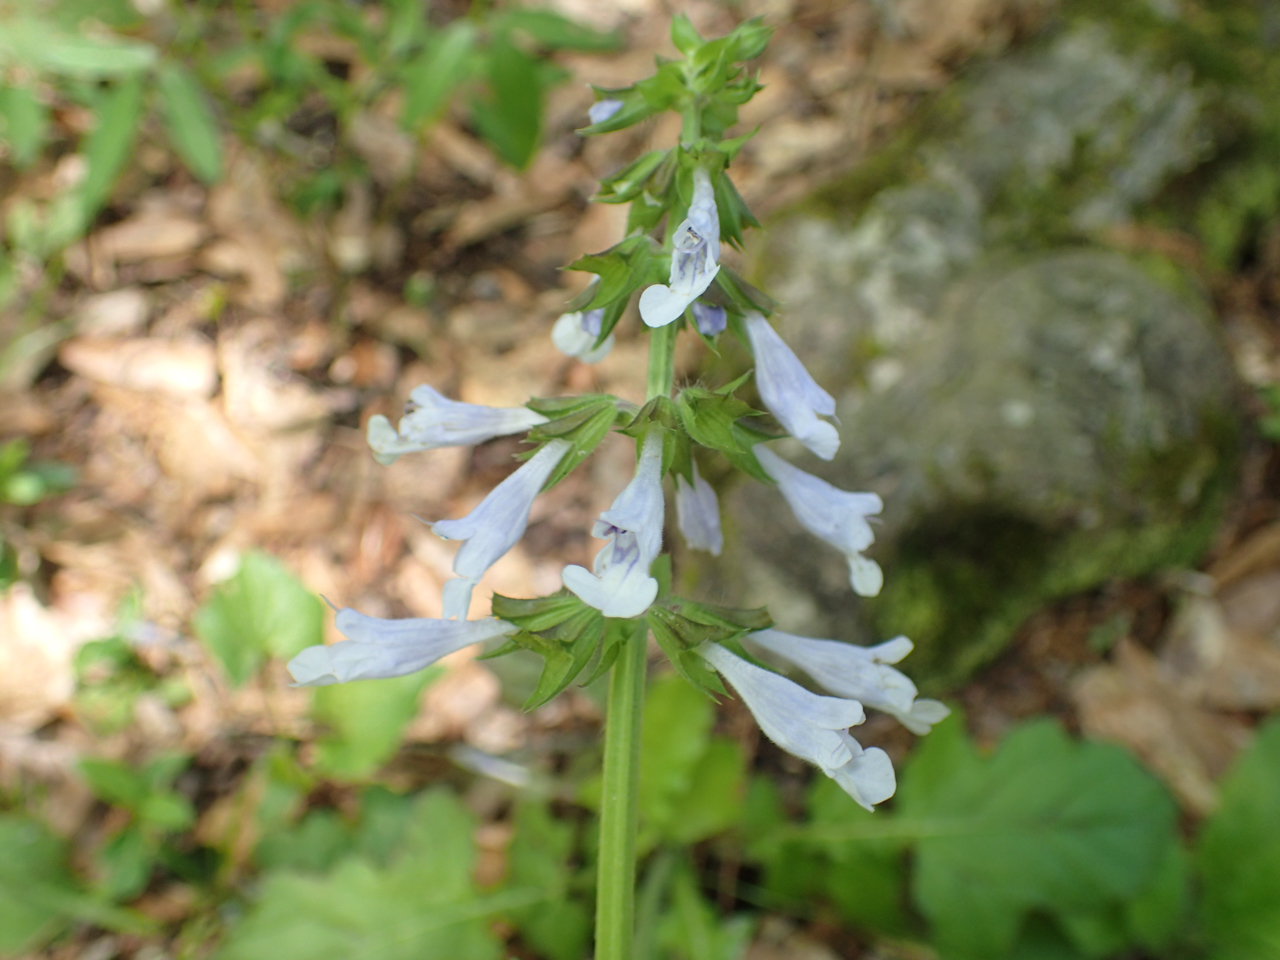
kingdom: Plantae
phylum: Tracheophyta
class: Magnoliopsida
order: Lamiales
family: Lamiaceae
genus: Salvia
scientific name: Salvia lyrata
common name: Cancerweed
